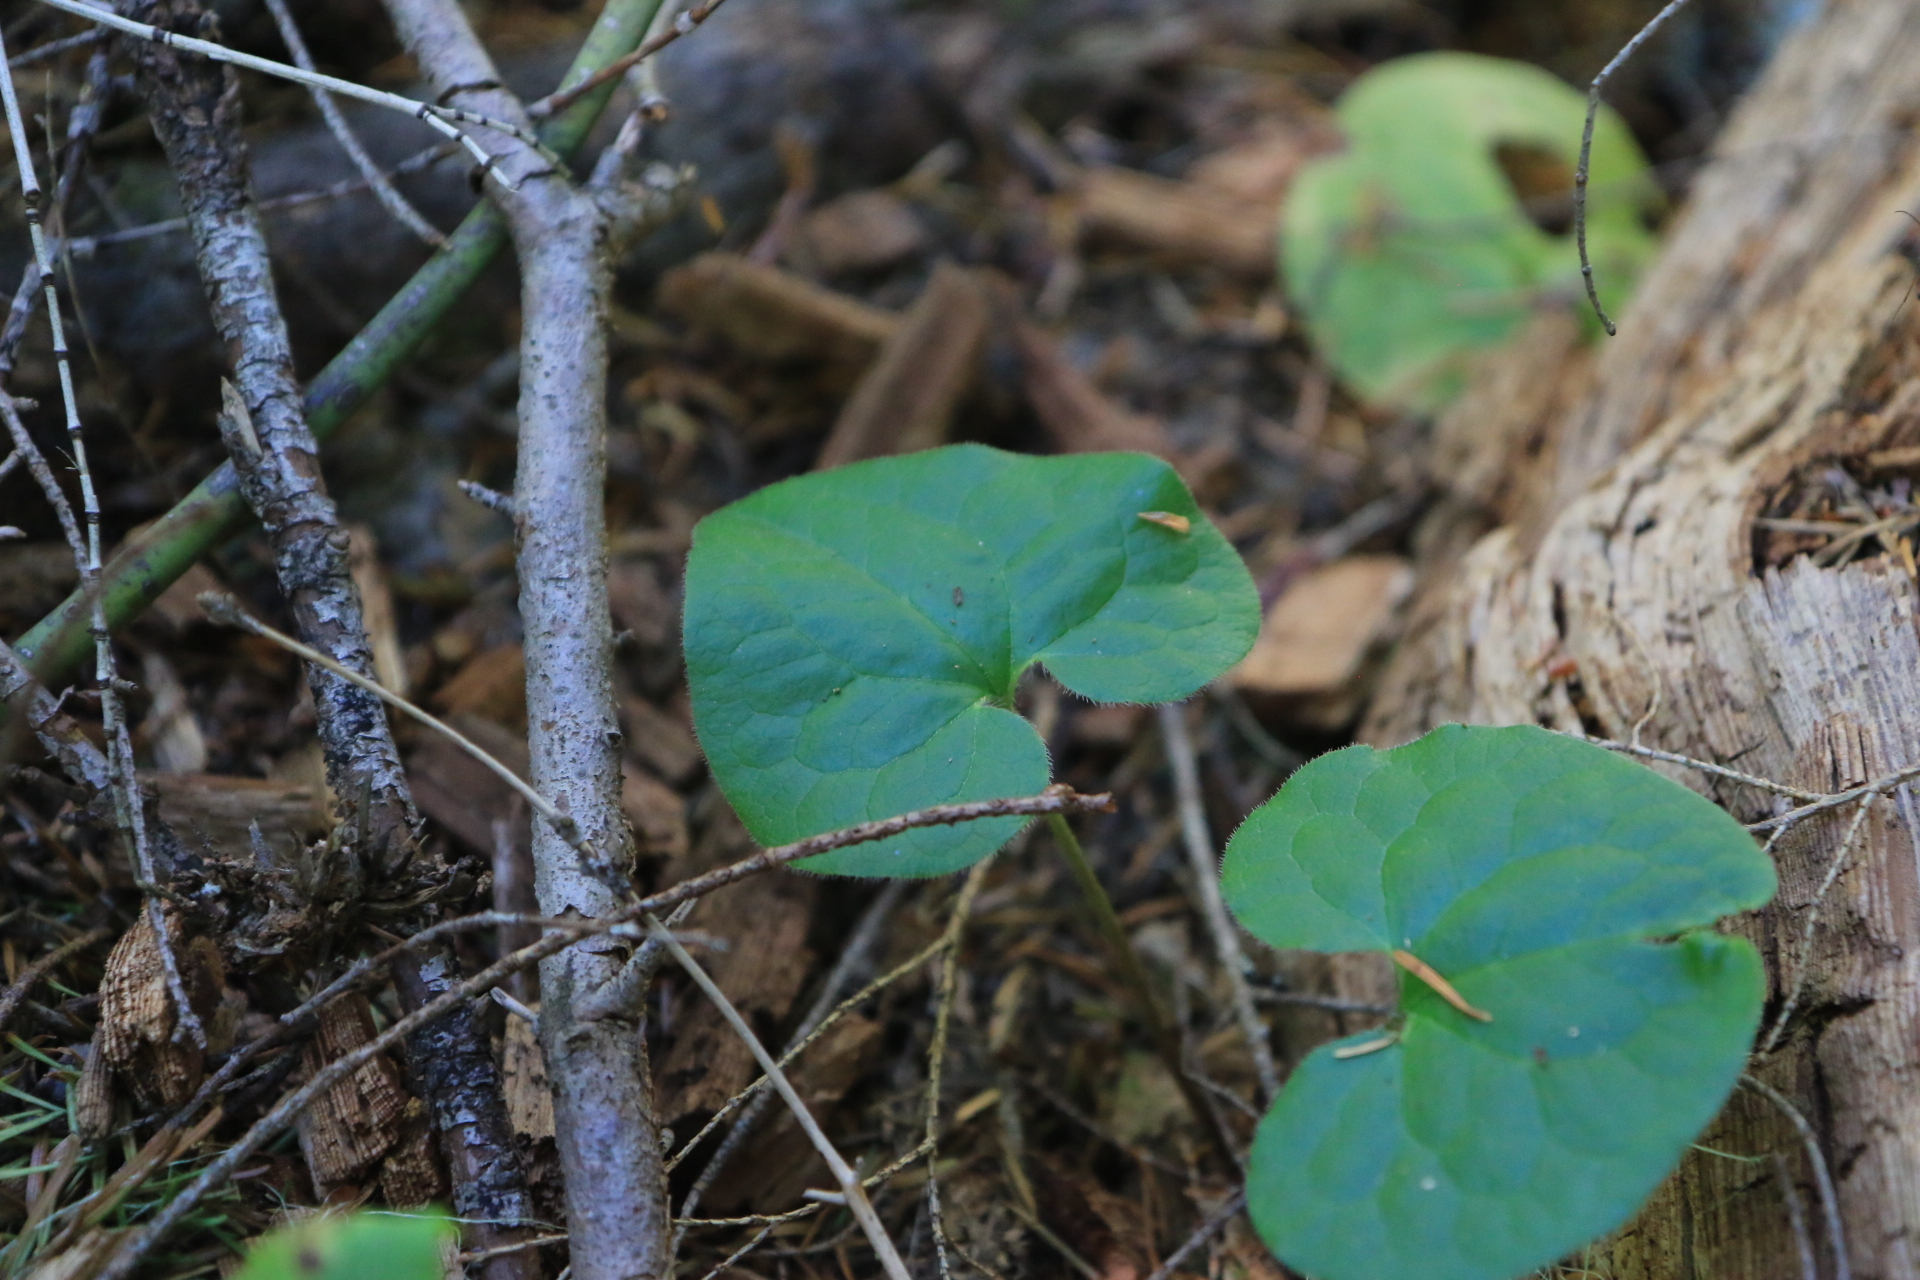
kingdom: Plantae
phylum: Tracheophyta
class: Magnoliopsida
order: Piperales
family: Aristolochiaceae
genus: Asarum
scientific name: Asarum caudatum
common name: Wild ginger
